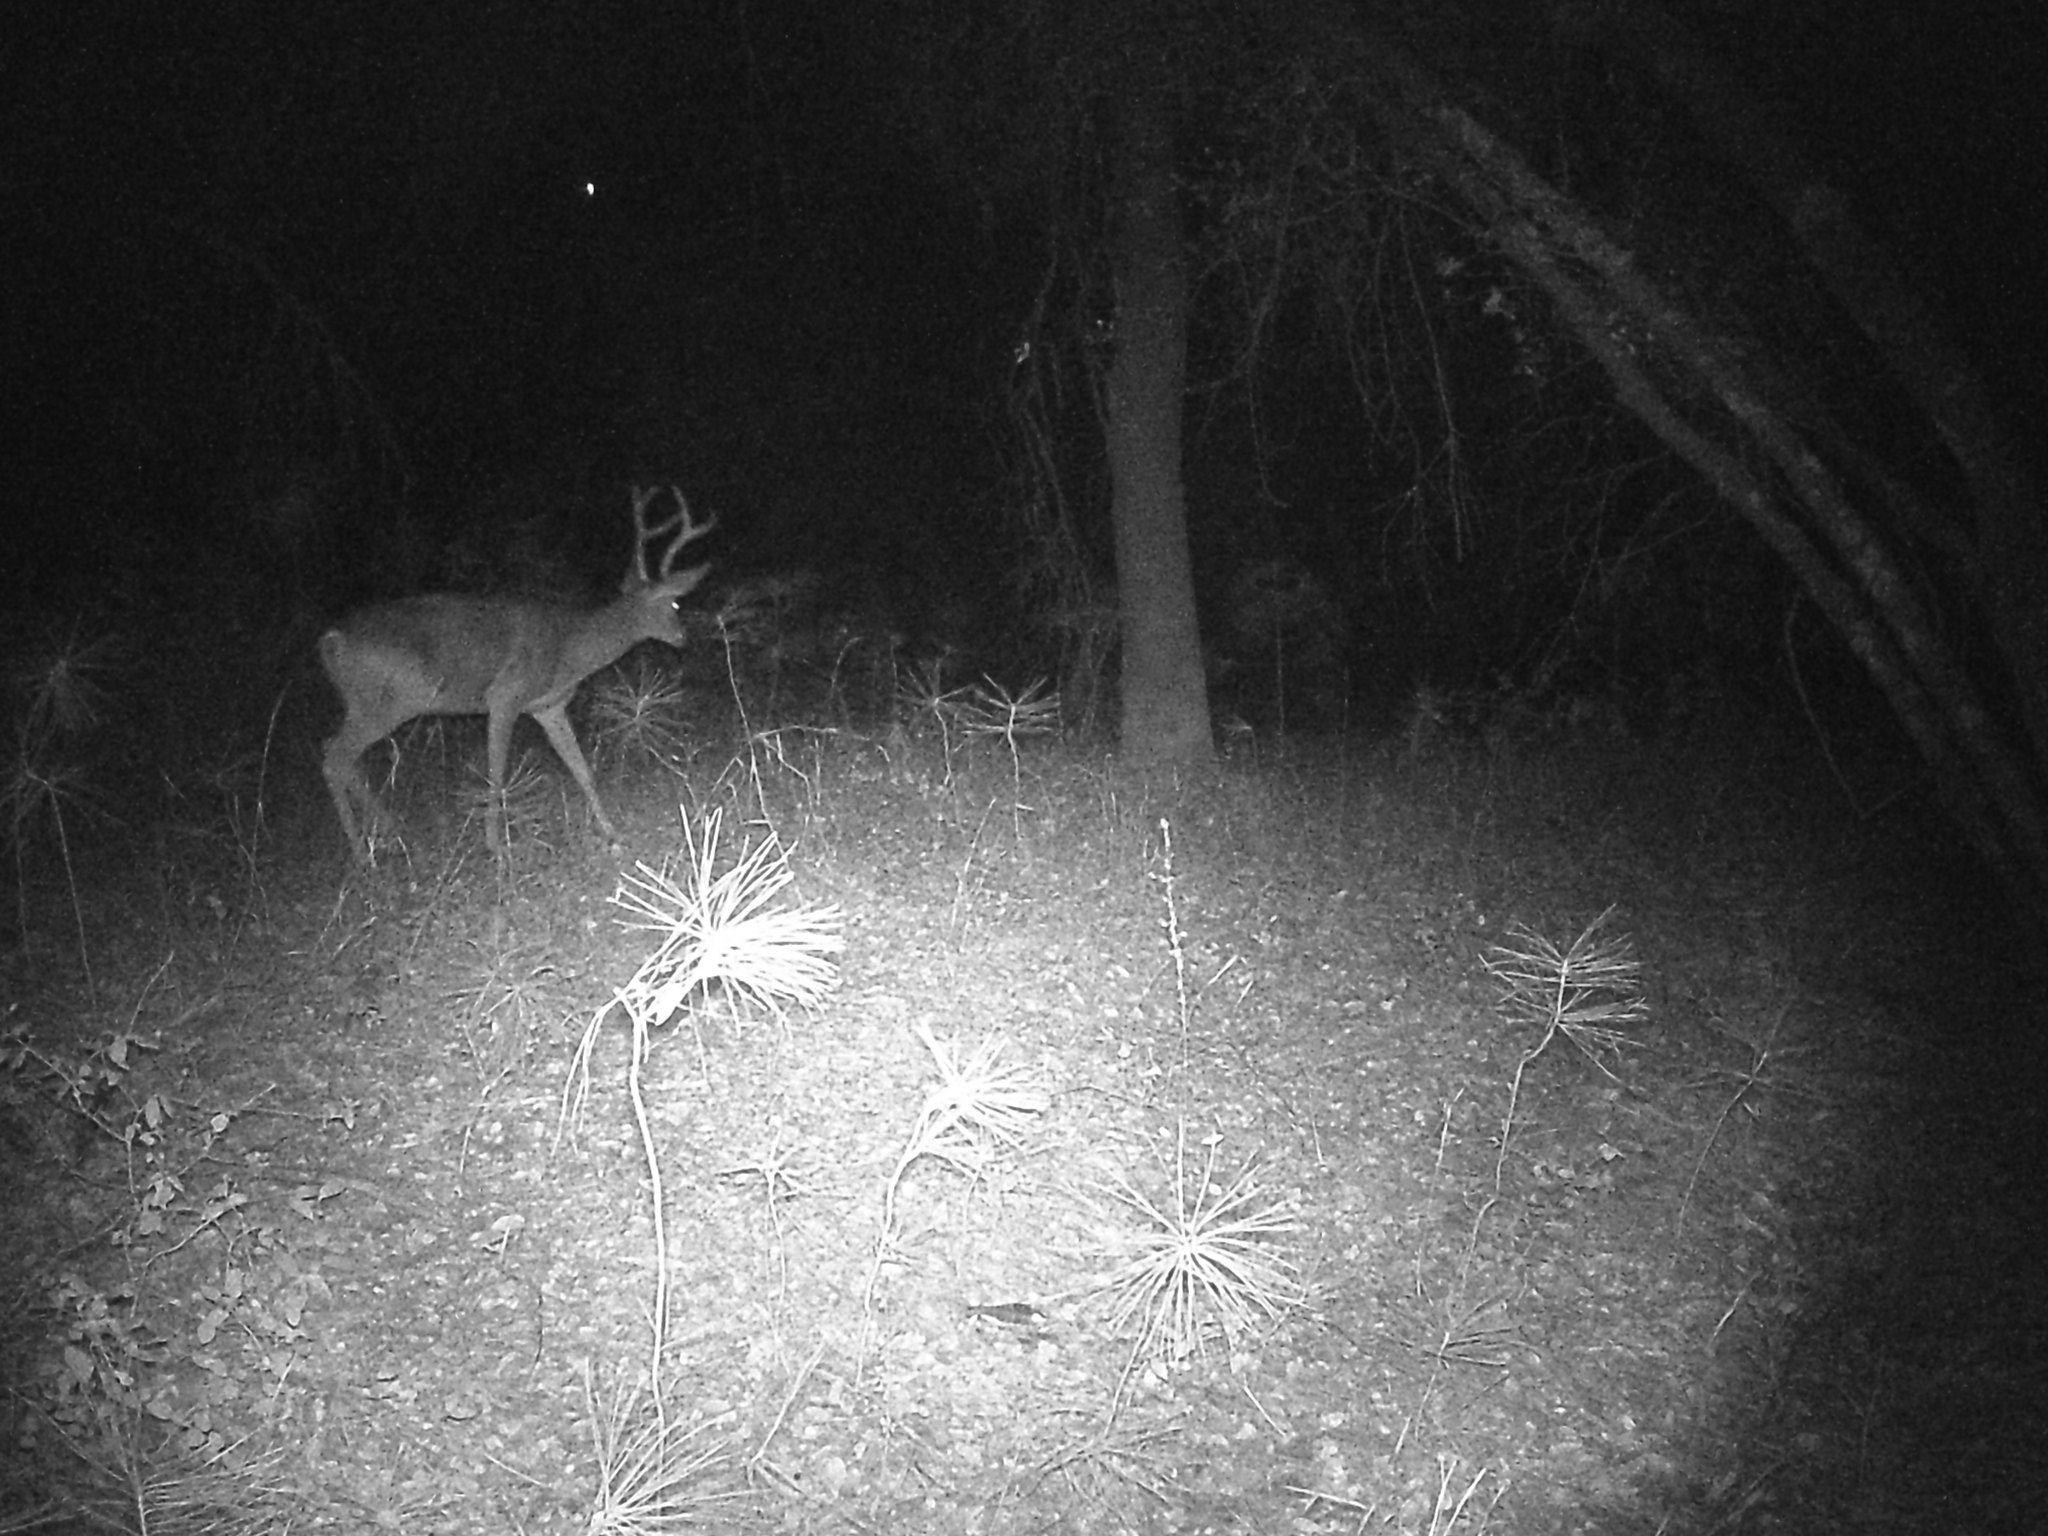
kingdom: Animalia
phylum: Chordata
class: Mammalia
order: Artiodactyla
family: Cervidae
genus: Odocoileus
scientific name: Odocoileus hemionus
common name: Mule deer
